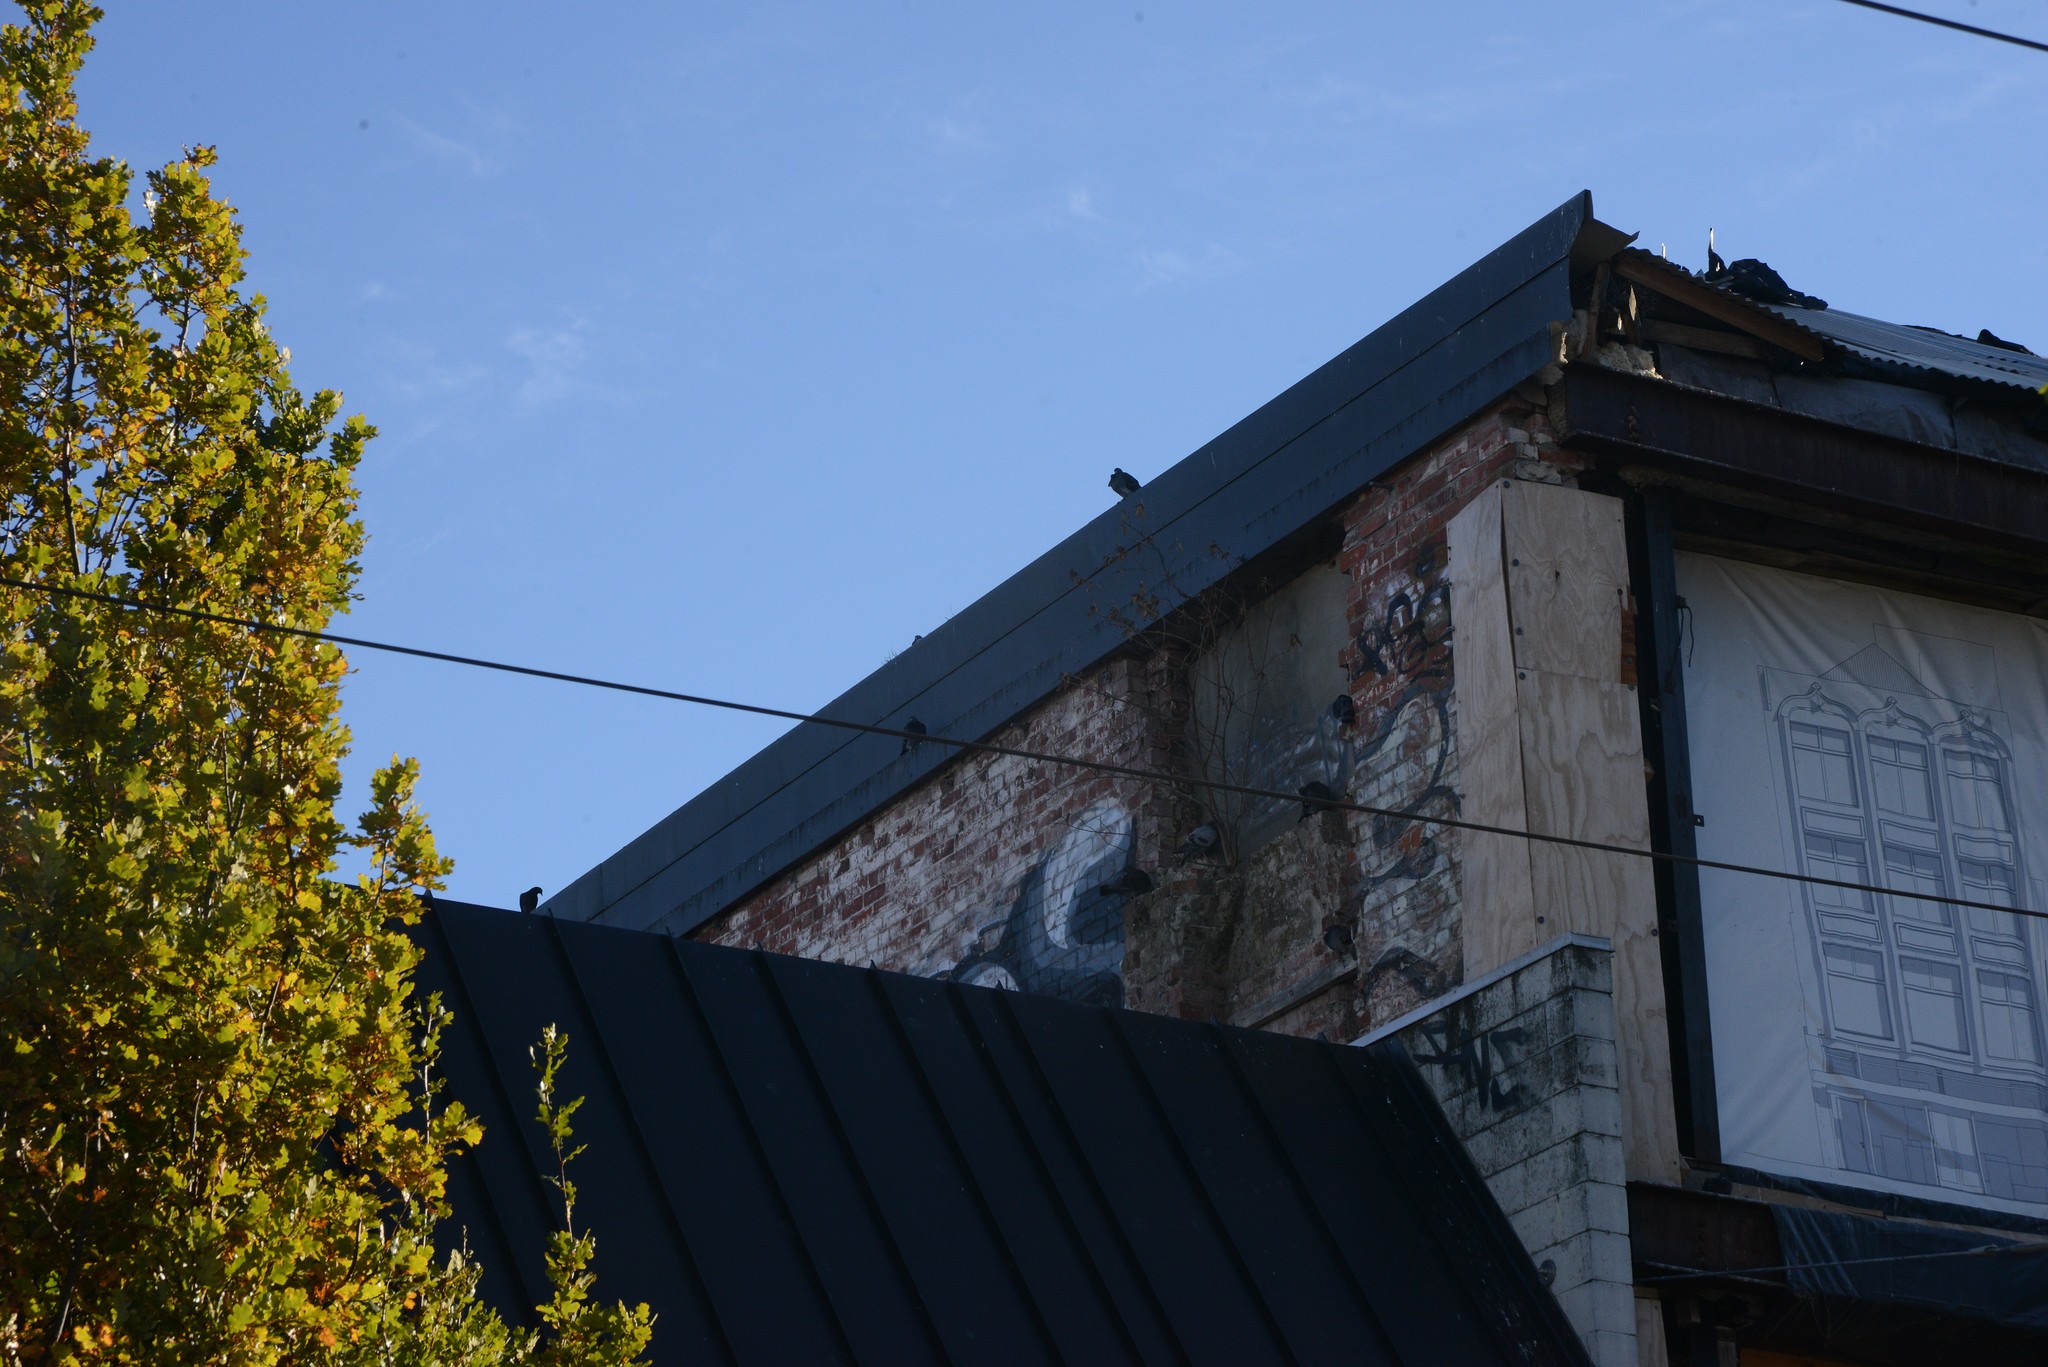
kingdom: Animalia
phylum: Chordata
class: Aves
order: Columbiformes
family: Columbidae
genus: Columba
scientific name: Columba livia
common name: Rock pigeon
